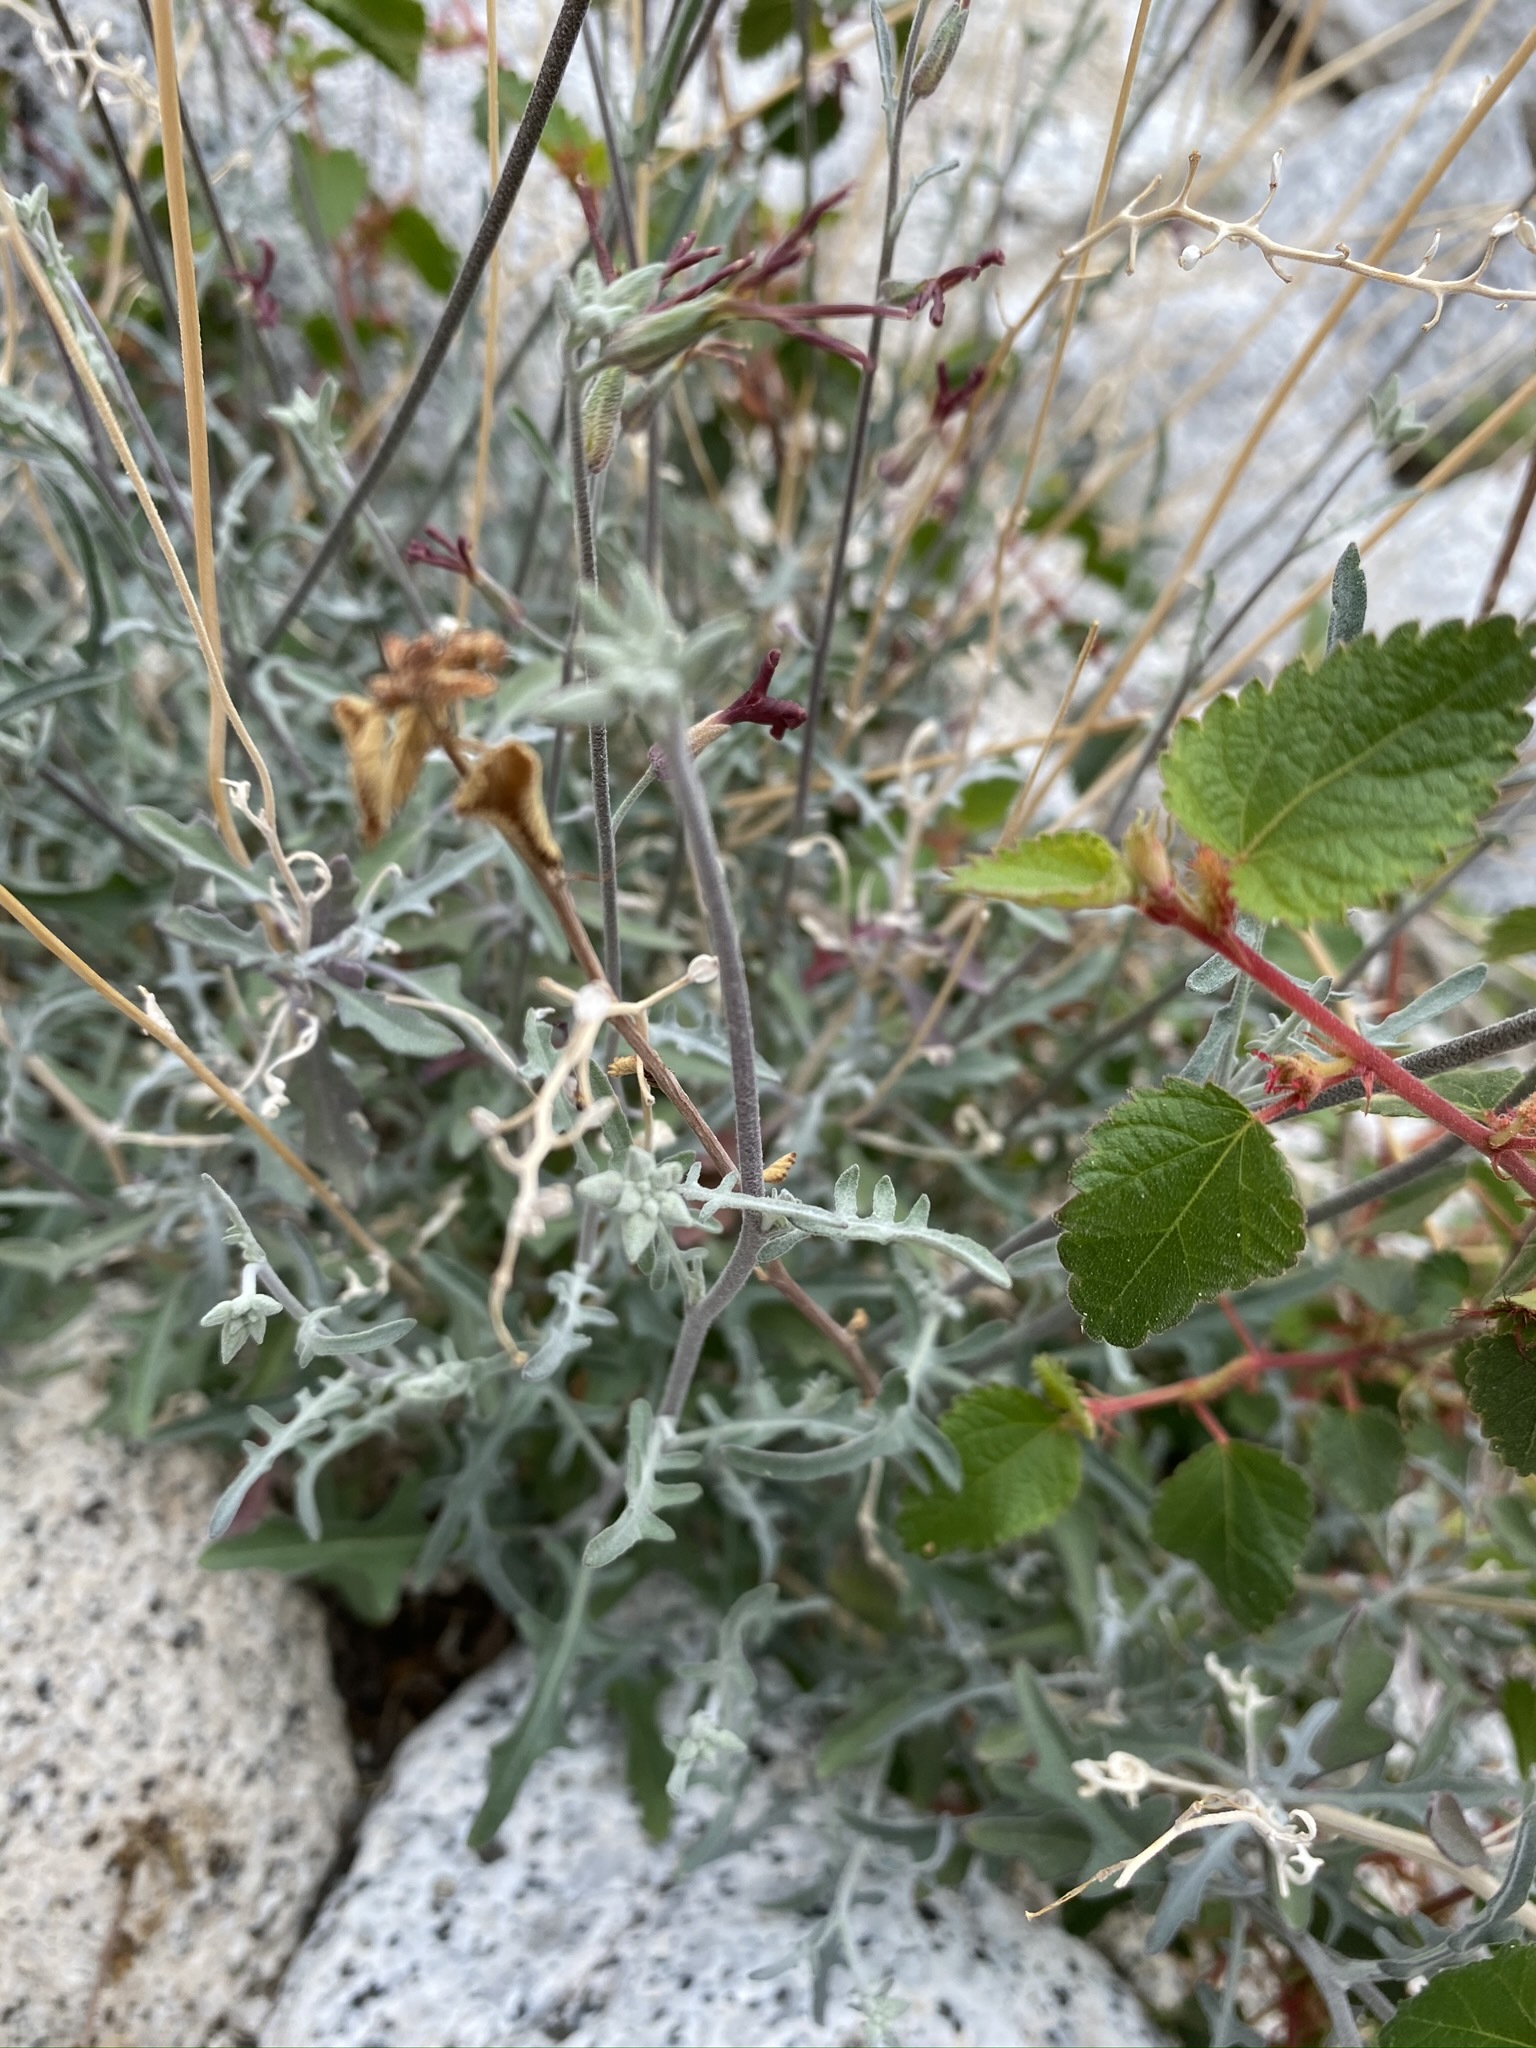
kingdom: Plantae
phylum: Tracheophyta
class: Magnoliopsida
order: Brassicales
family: Brassicaceae
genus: Lyrocarpa
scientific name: Lyrocarpa coulteri
